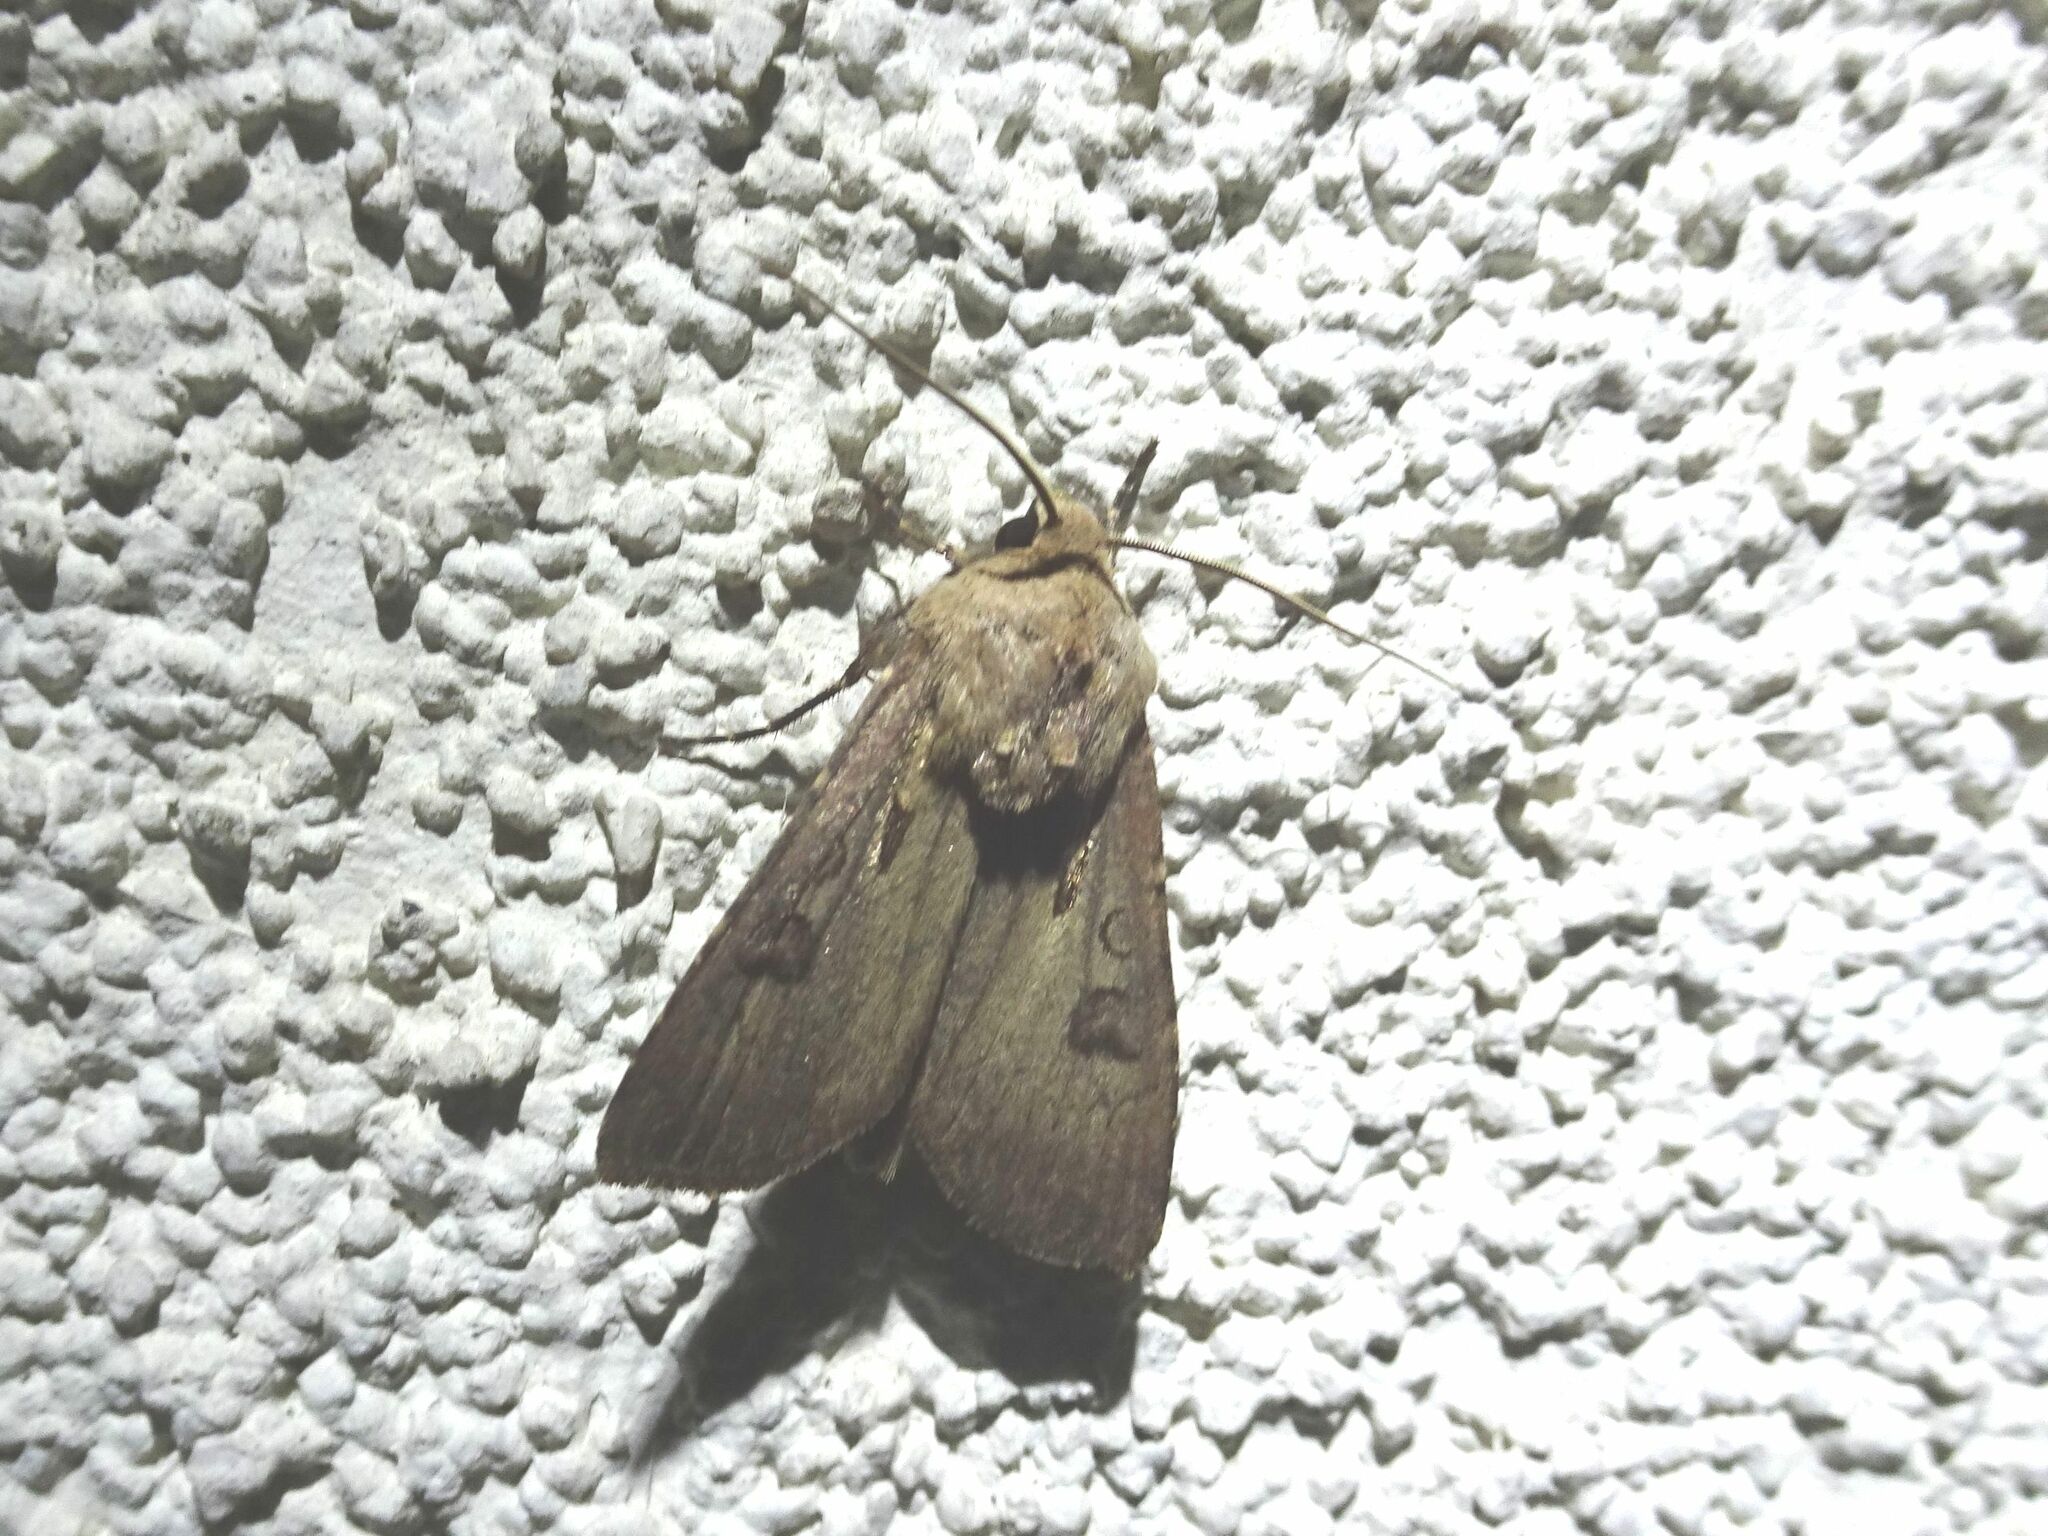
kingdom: Animalia
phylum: Arthropoda
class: Insecta
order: Lepidoptera
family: Noctuidae
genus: Agrotis
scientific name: Agrotis exclamationis
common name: Heart and dart
